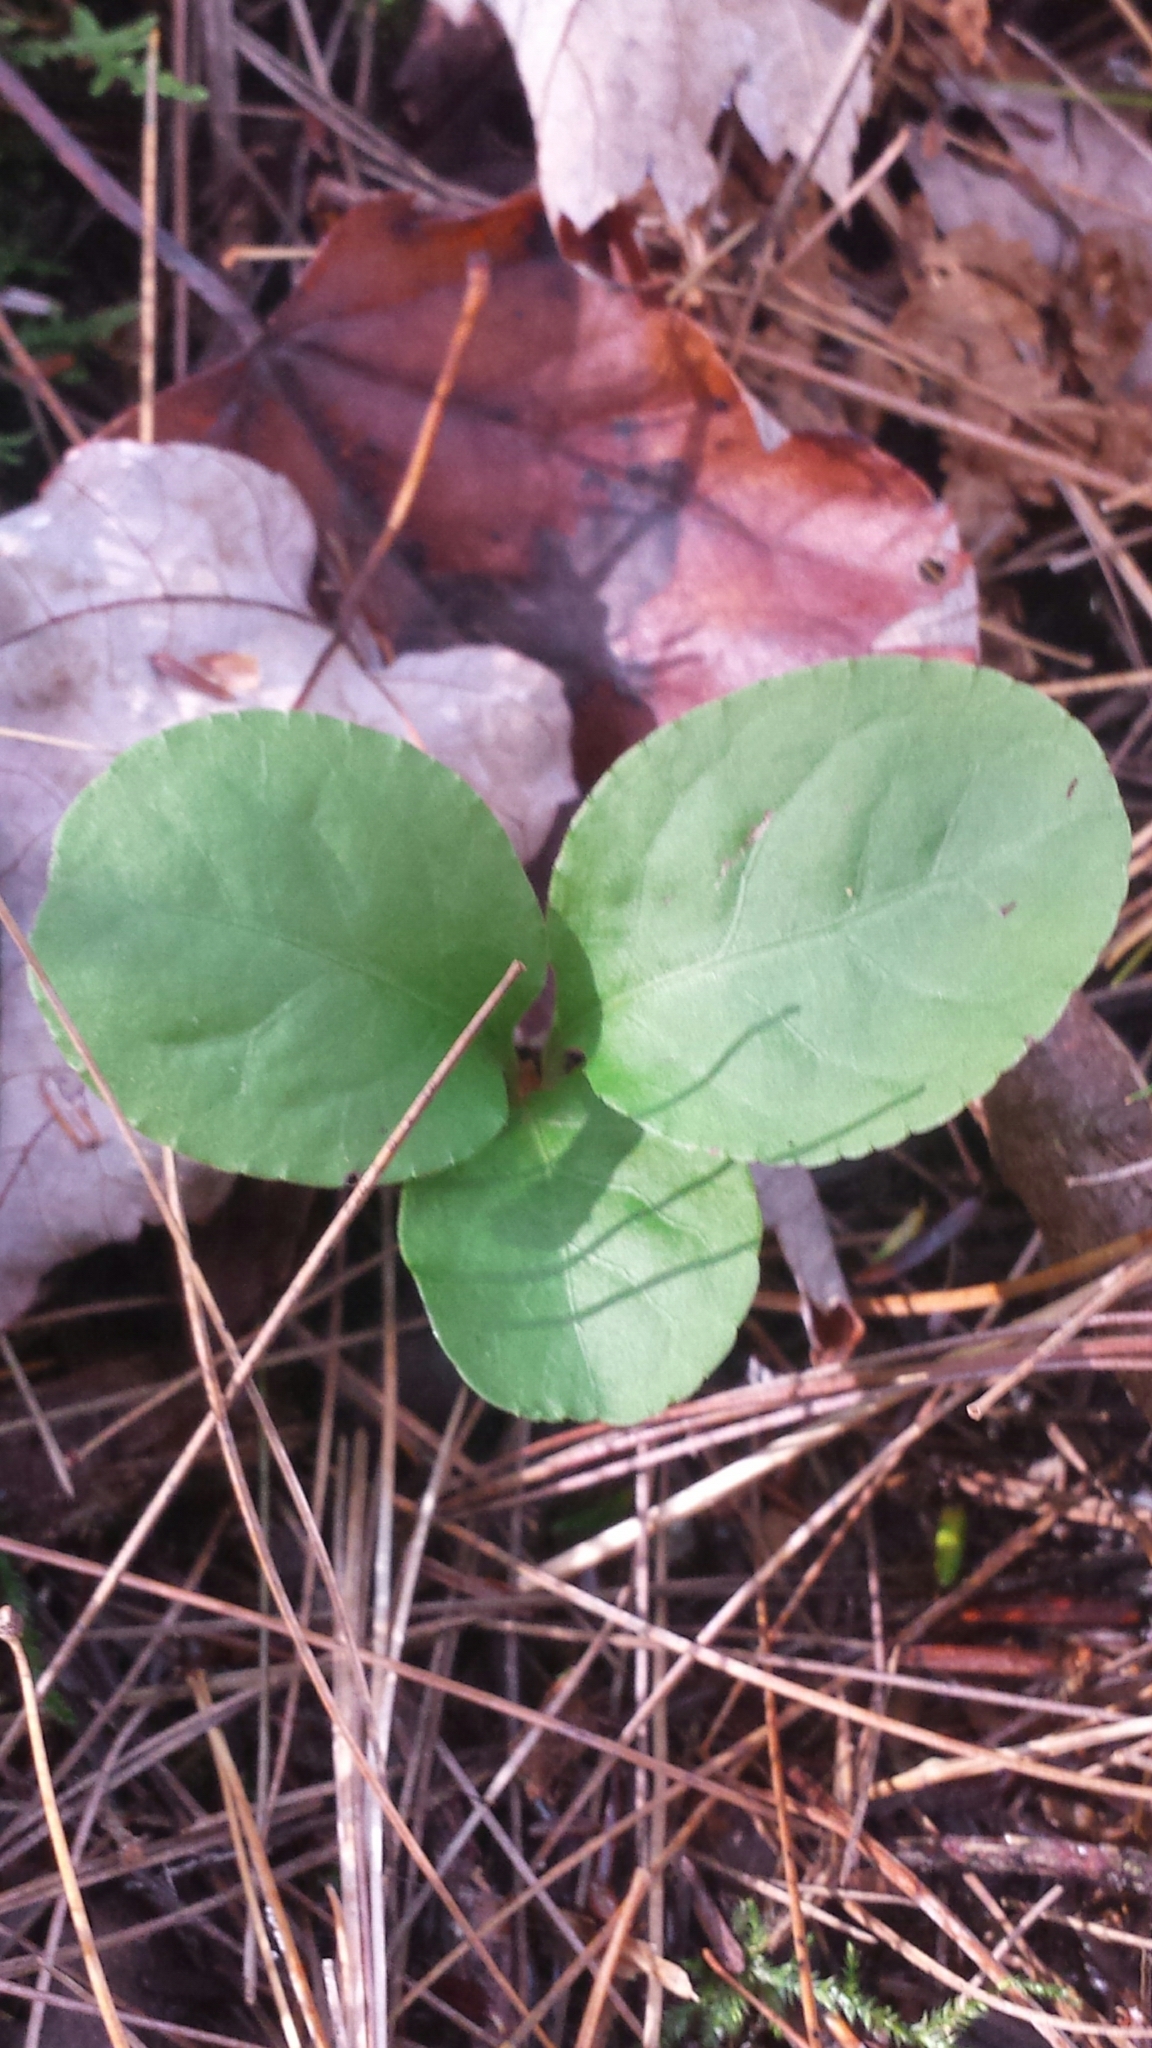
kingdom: Plantae
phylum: Tracheophyta
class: Magnoliopsida
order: Ericales
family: Ericaceae
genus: Pyrola
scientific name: Pyrola elliptica
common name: Shinleaf
